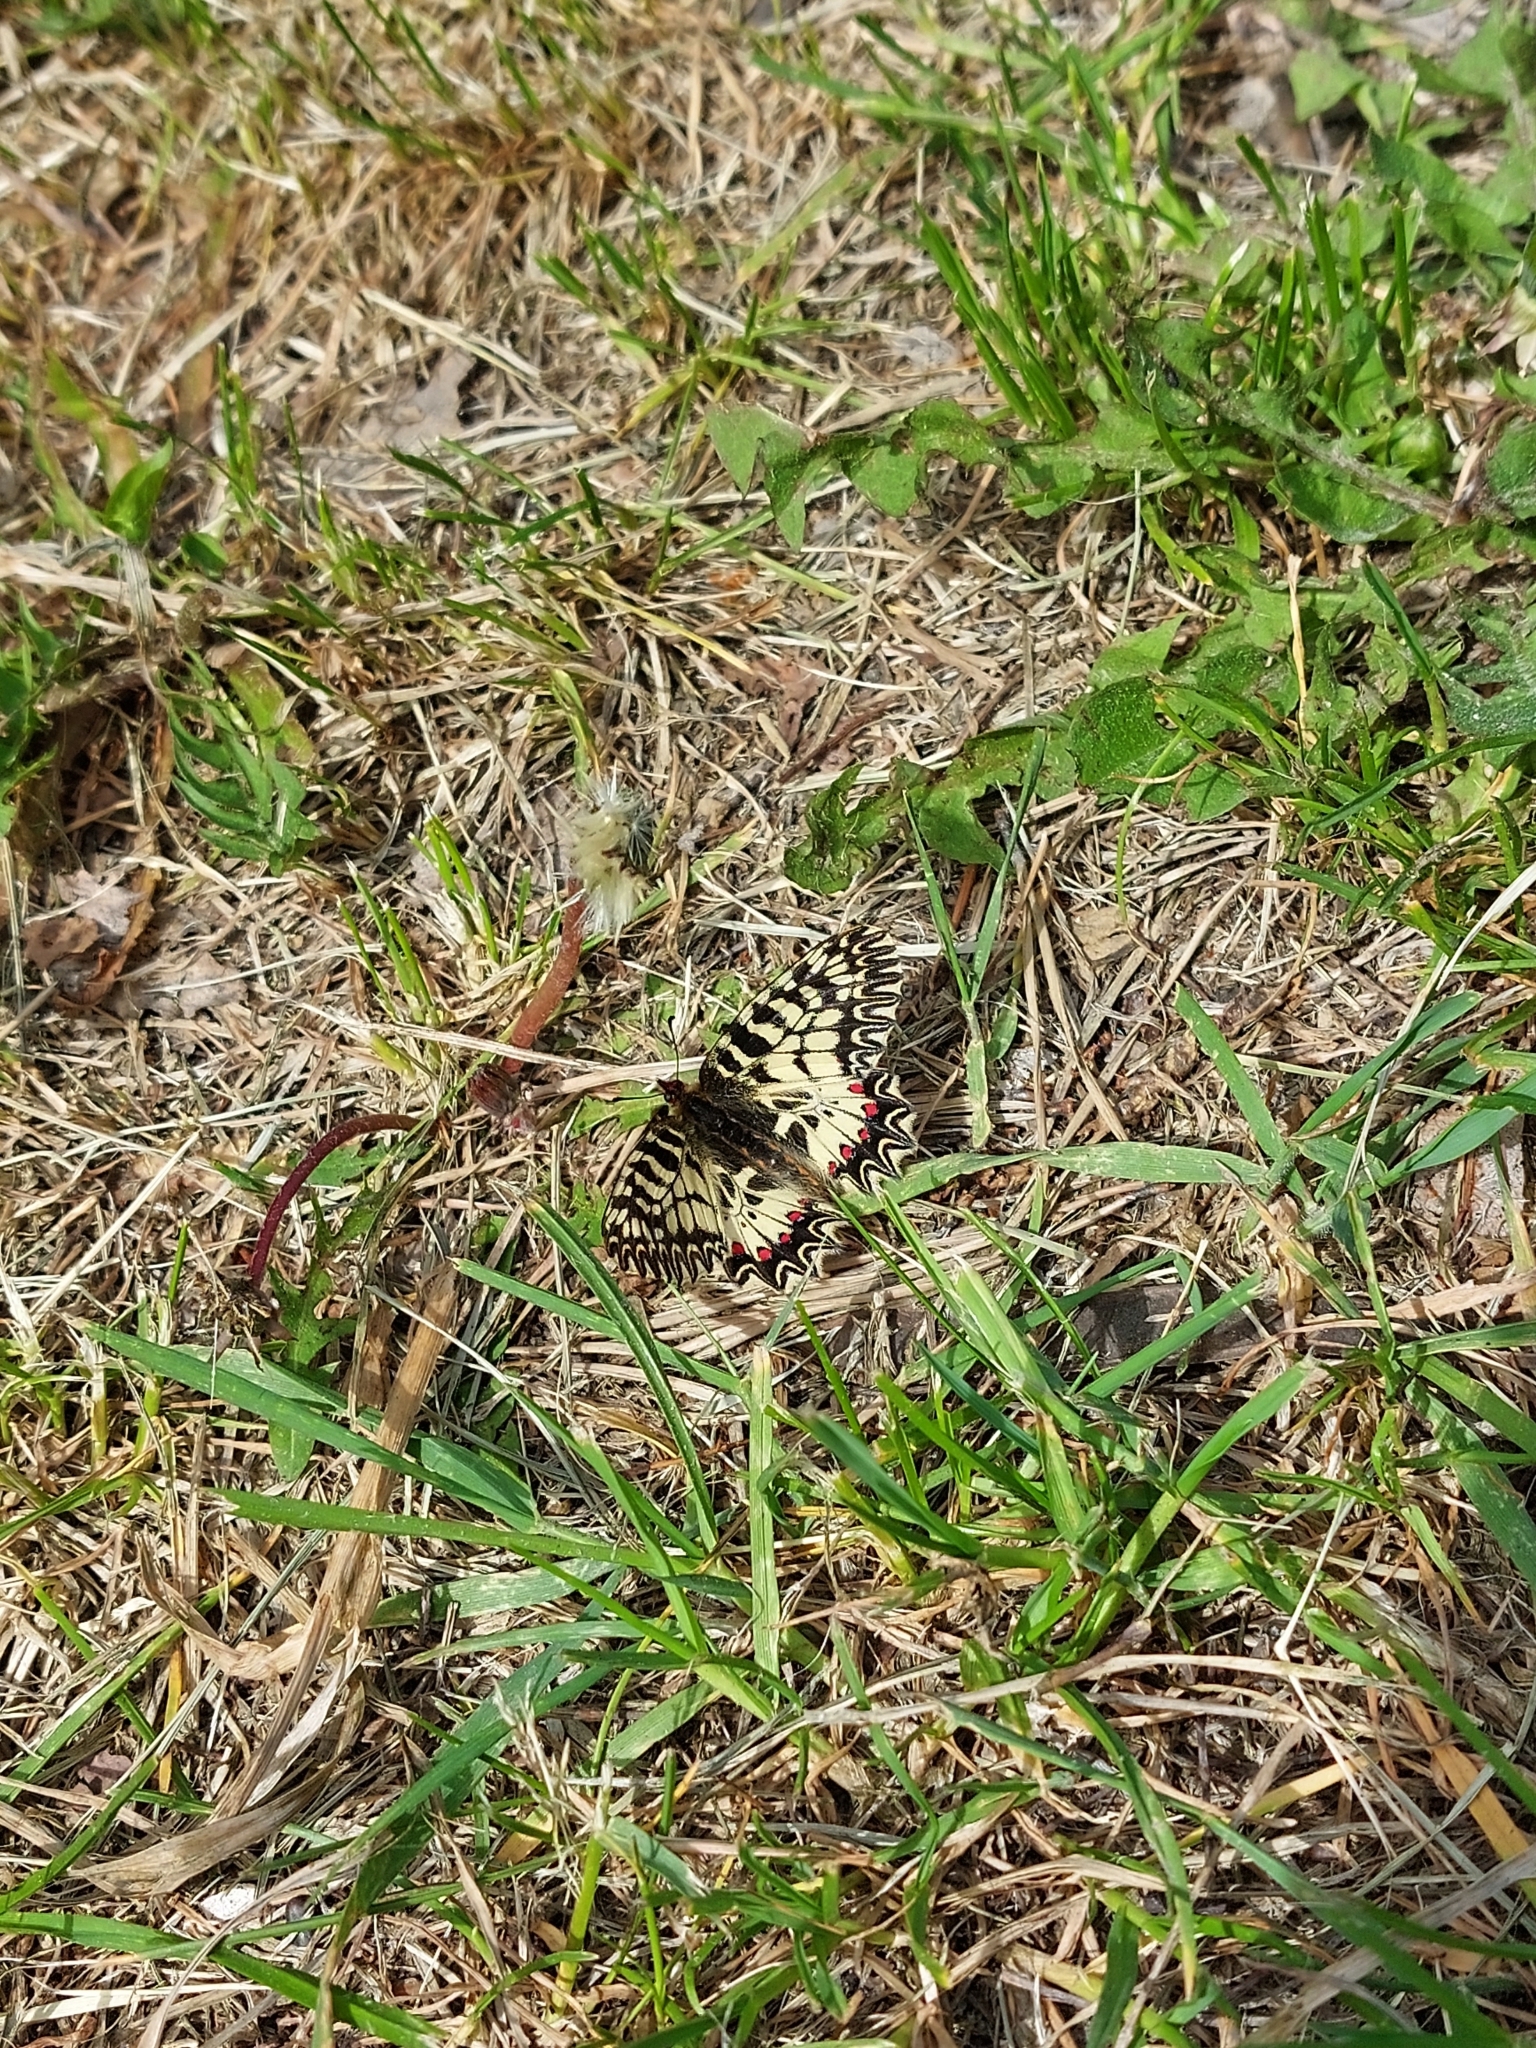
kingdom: Animalia
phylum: Arthropoda
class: Insecta
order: Lepidoptera
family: Papilionidae
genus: Zerynthia
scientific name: Zerynthia polyxena
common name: Southern festoon
